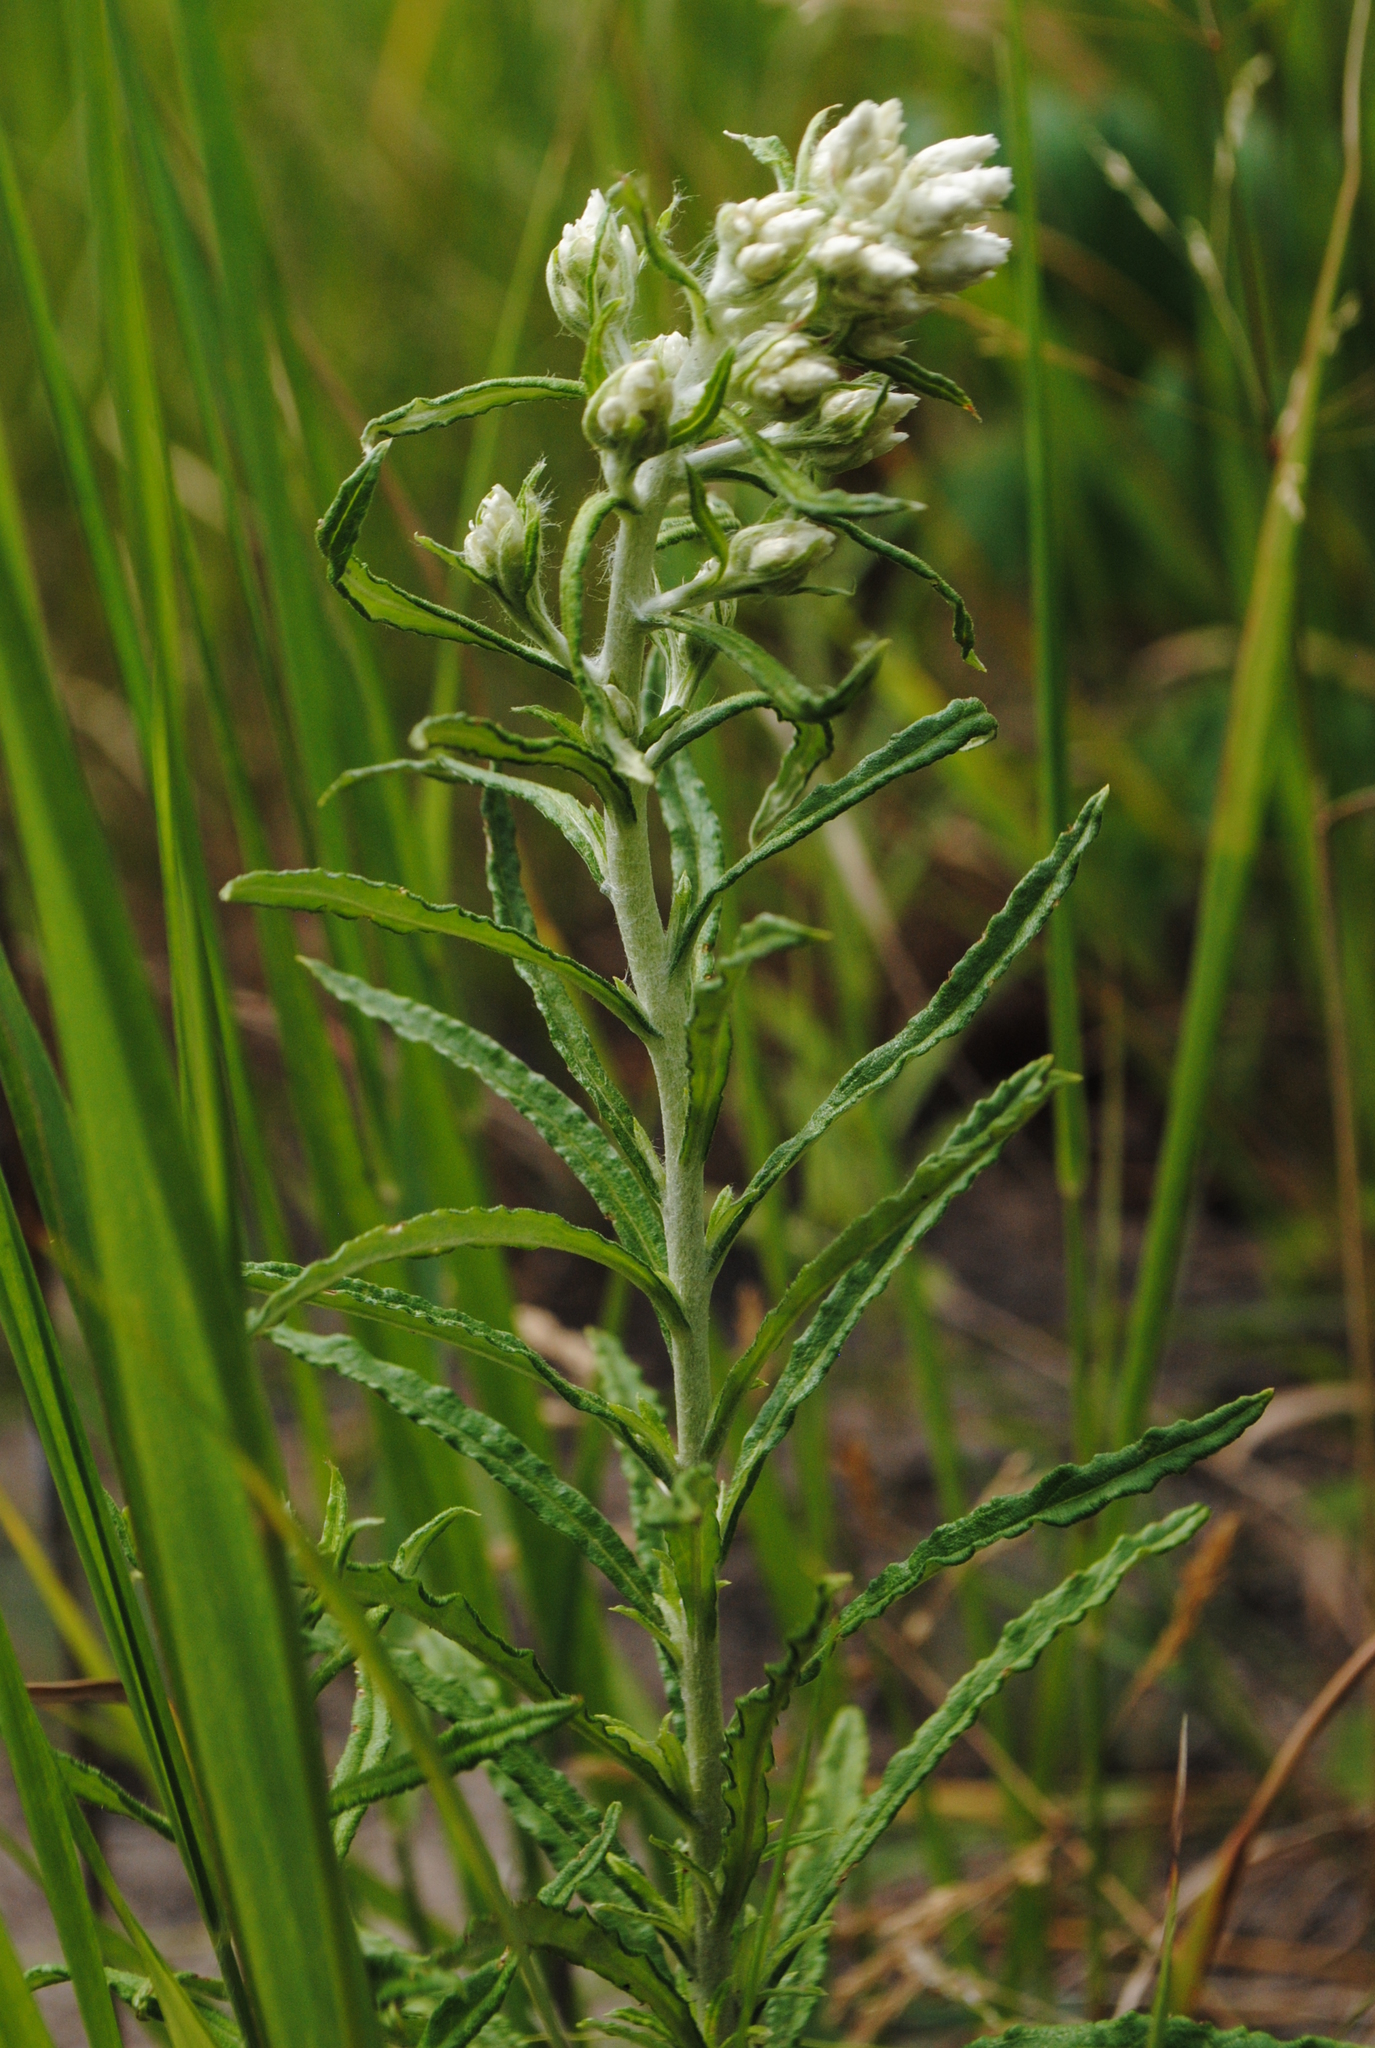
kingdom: Plantae
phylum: Tracheophyta
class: Magnoliopsida
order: Asterales
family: Asteraceae
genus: Pseudognaphalium
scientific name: Pseudognaphalium obtusifolium
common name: Eastern rabbit-tobacco
